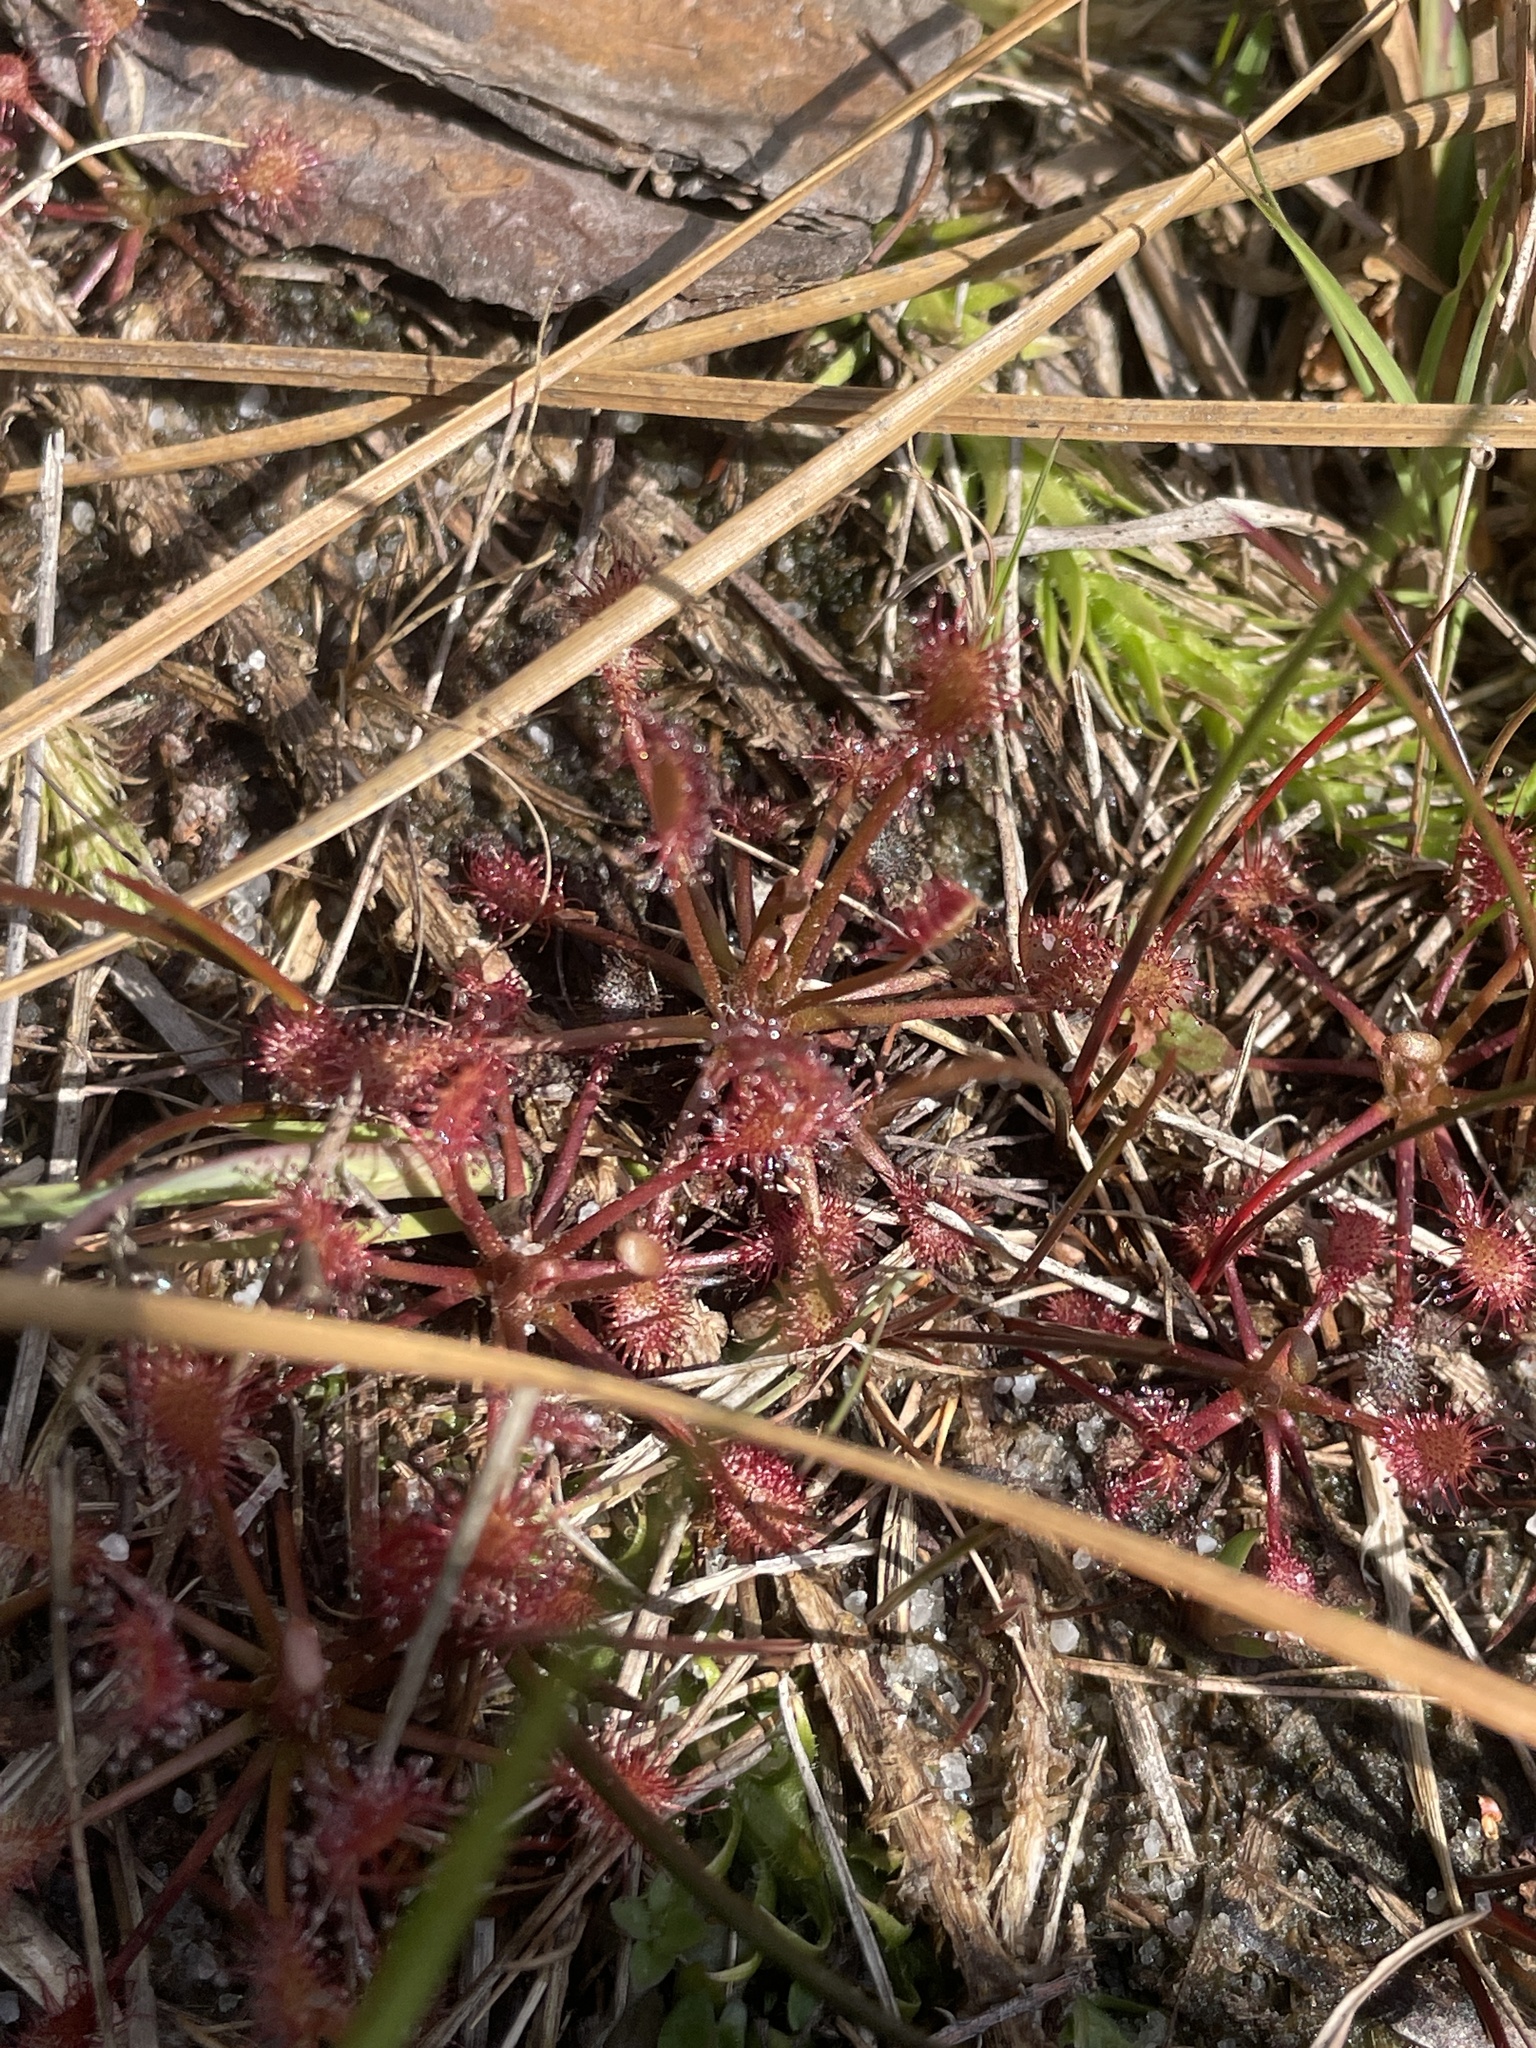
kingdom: Plantae
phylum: Tracheophyta
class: Magnoliopsida
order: Caryophyllales
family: Droseraceae
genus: Drosera
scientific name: Drosera intermedia
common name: Oblong-leaved sundew
